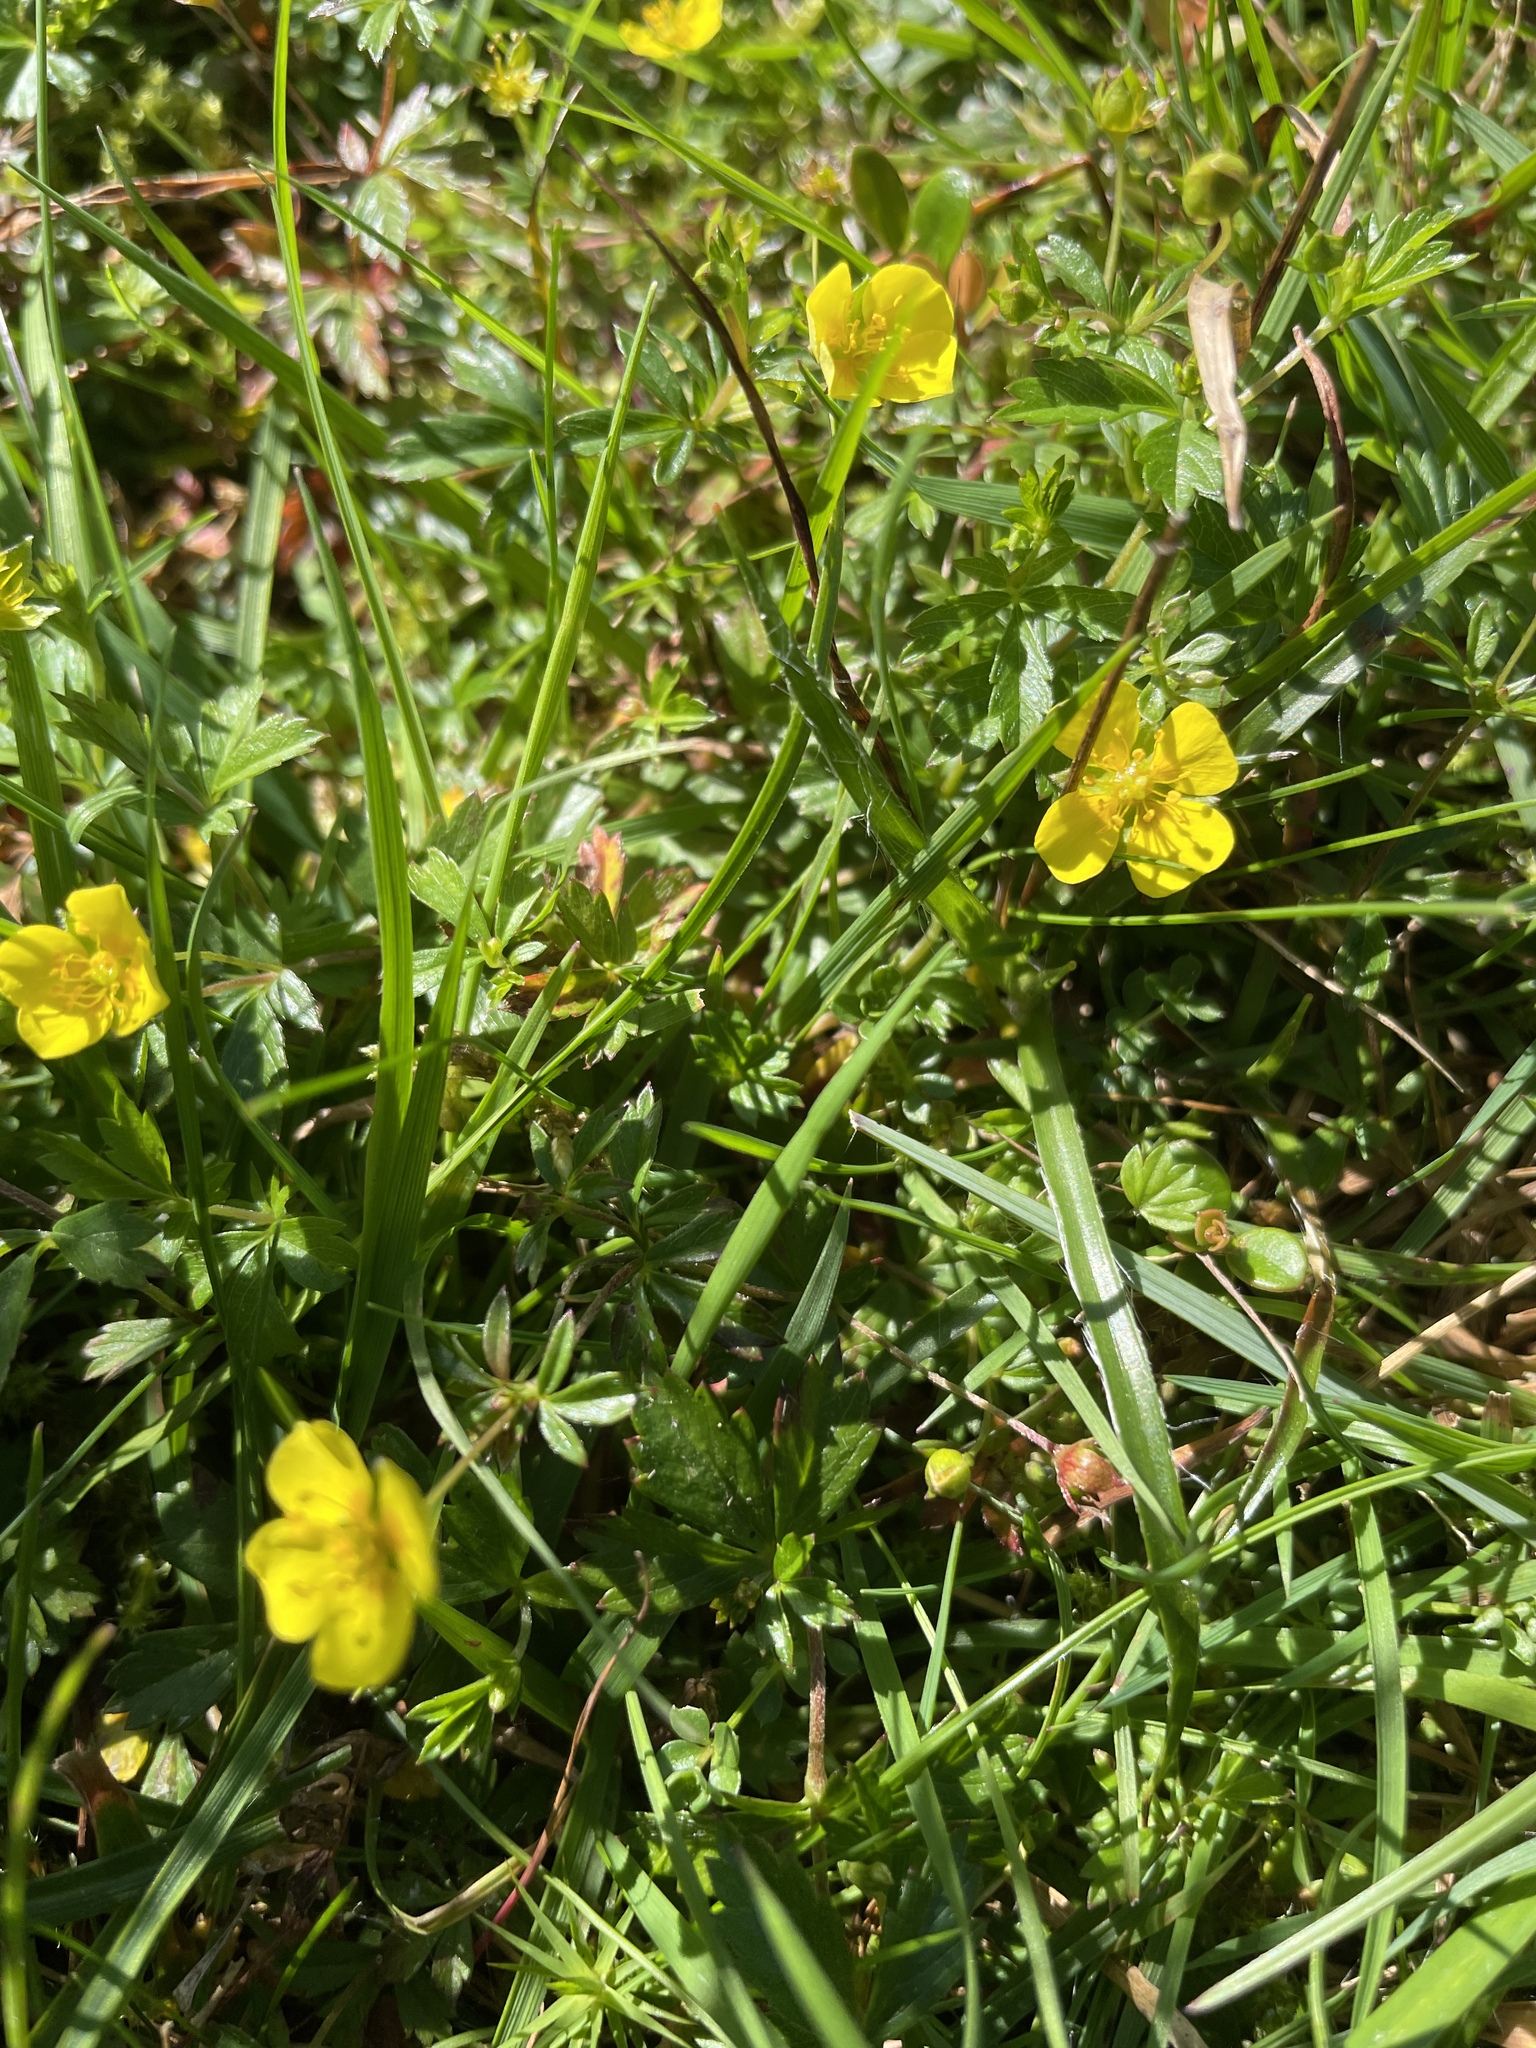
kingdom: Plantae
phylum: Tracheophyta
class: Magnoliopsida
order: Rosales
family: Rosaceae
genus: Potentilla
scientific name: Potentilla erecta
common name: Tormentil
